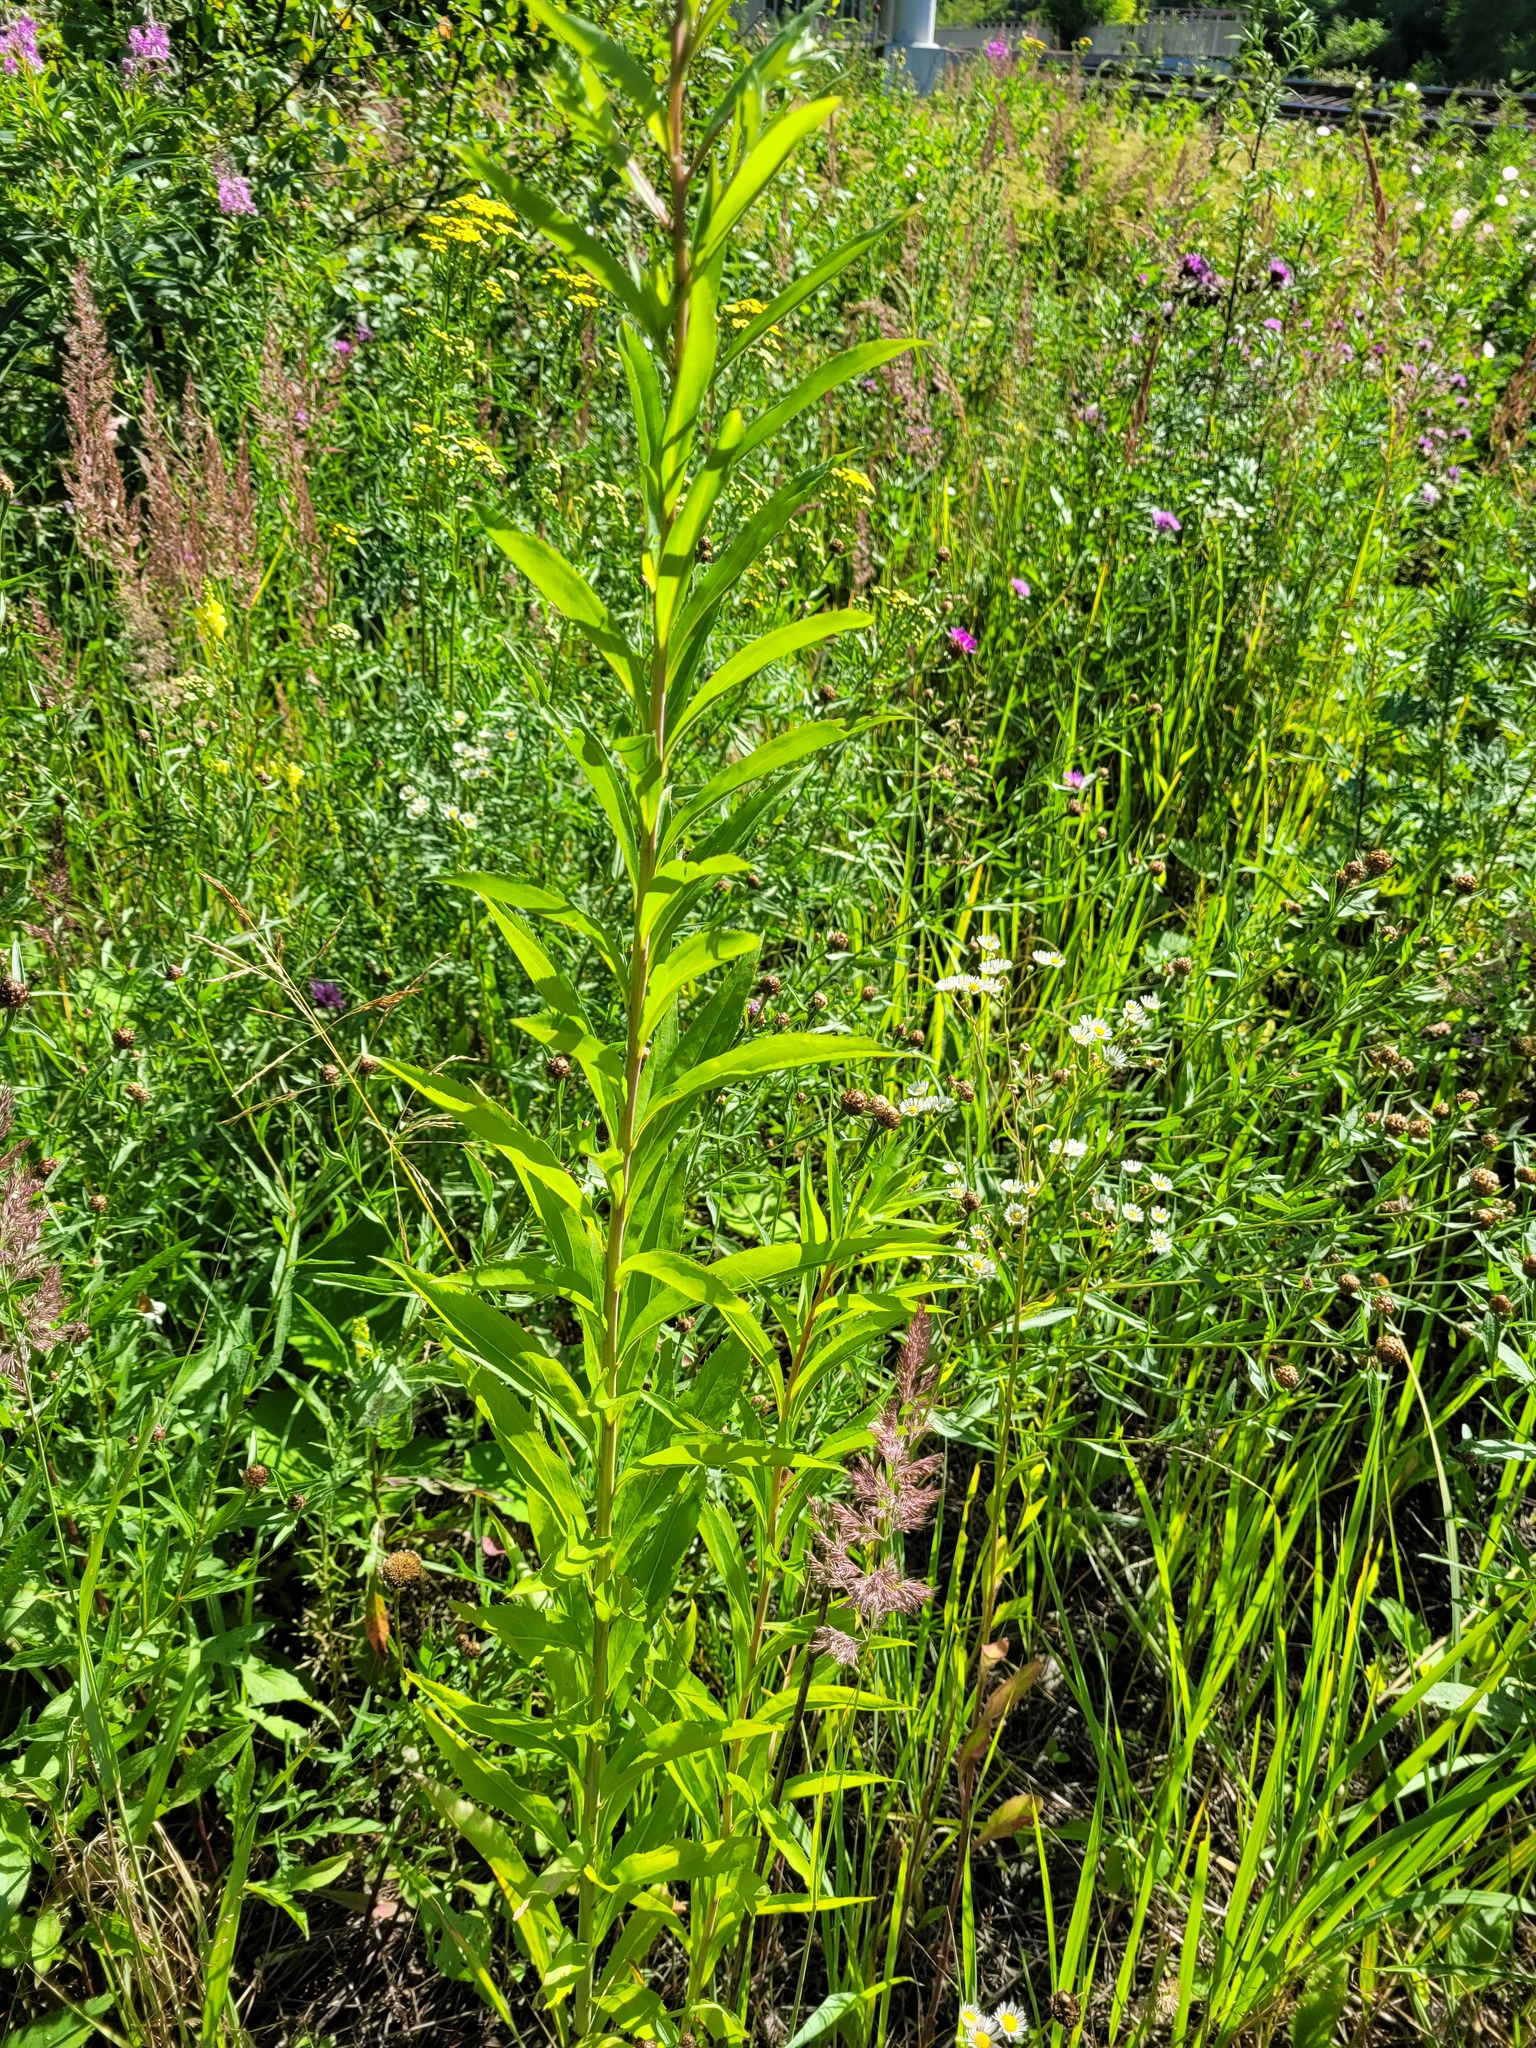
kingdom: Plantae
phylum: Tracheophyta
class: Magnoliopsida
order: Asterales
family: Asteraceae
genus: Solidago
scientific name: Solidago gigantea
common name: Giant goldenrod
